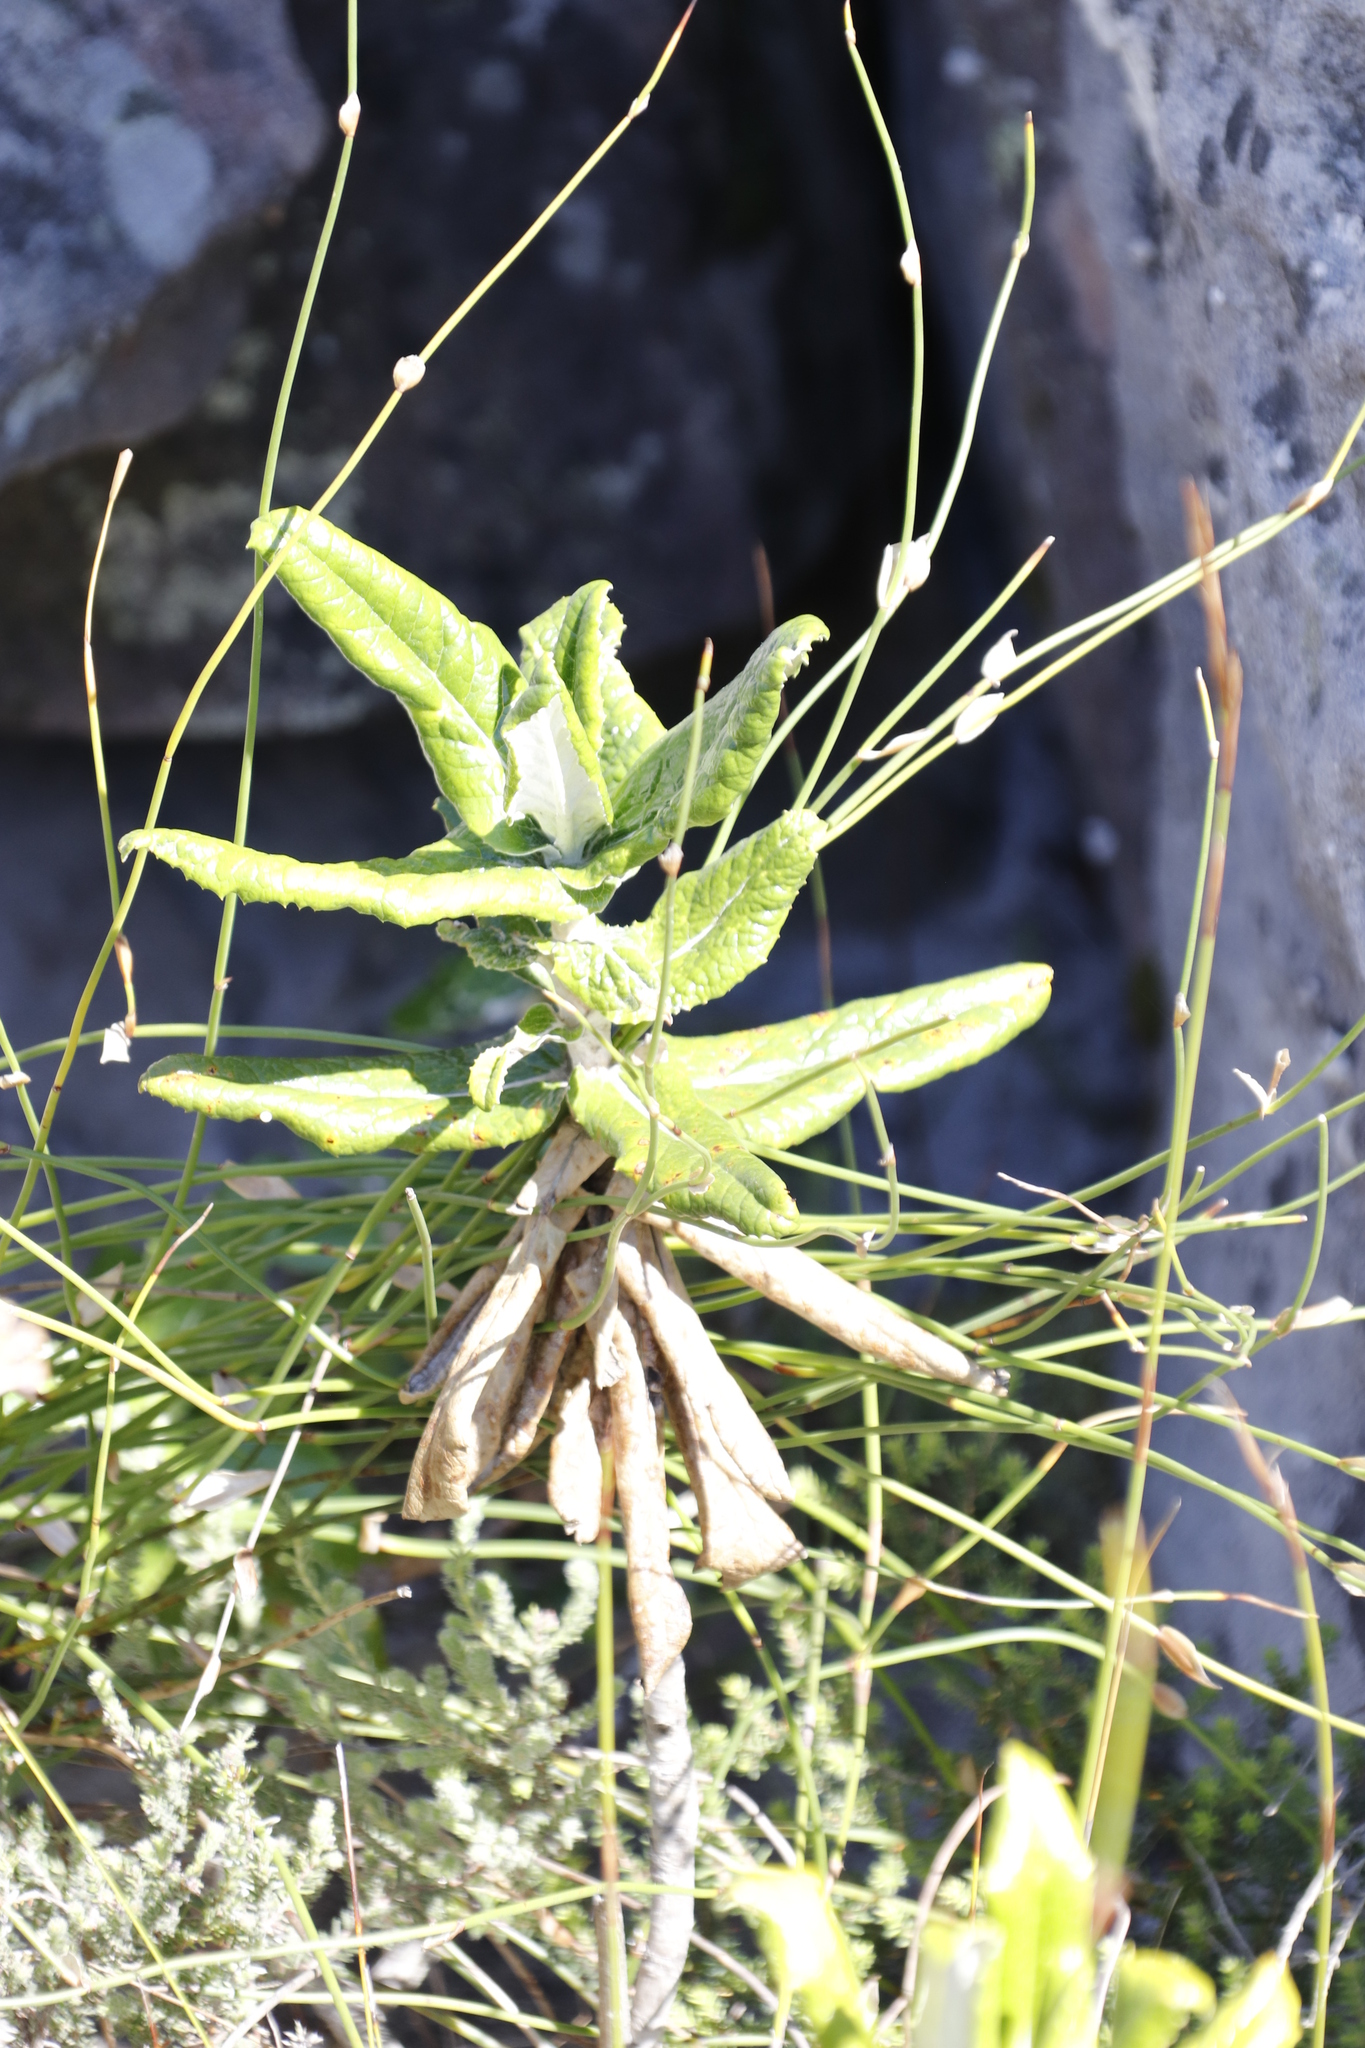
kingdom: Plantae
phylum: Tracheophyta
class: Magnoliopsida
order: Apiales
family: Apiaceae
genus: Hermas
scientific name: Hermas villosa
